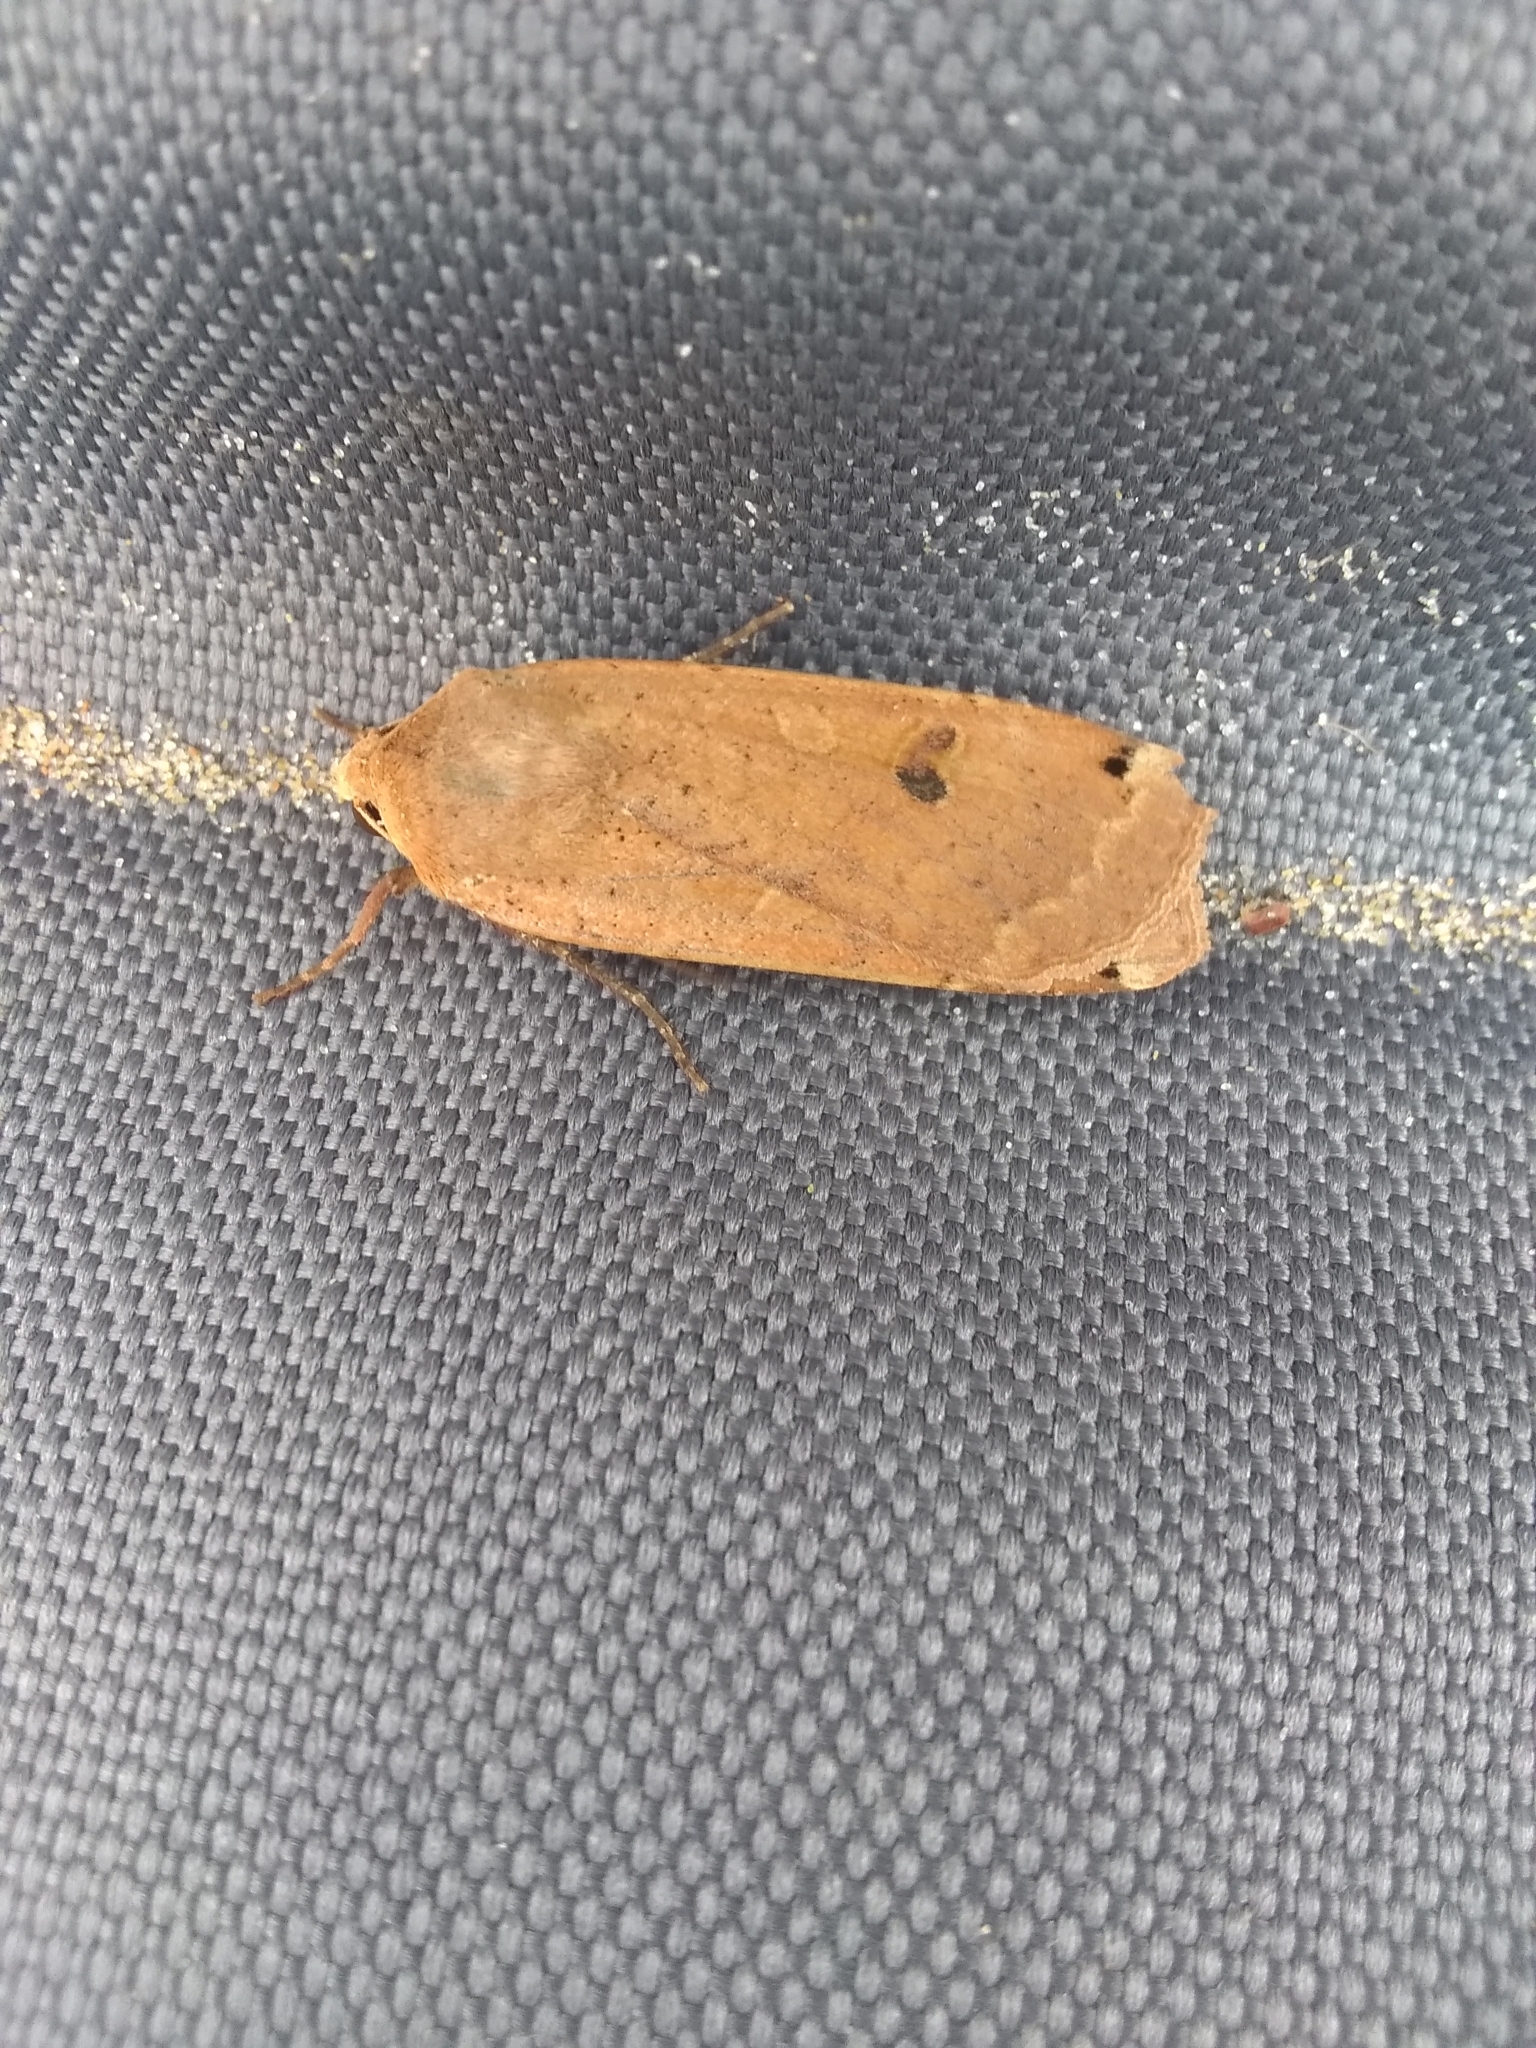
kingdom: Animalia
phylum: Arthropoda
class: Insecta
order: Lepidoptera
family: Noctuidae
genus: Noctua
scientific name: Noctua pronuba
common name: Large yellow underwing
